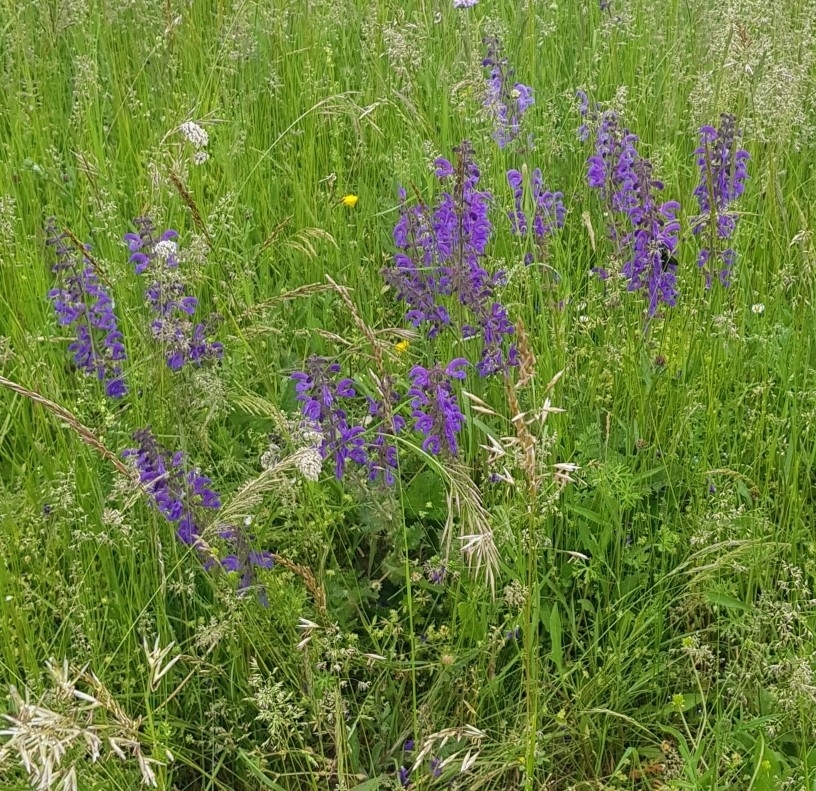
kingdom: Plantae
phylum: Tracheophyta
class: Magnoliopsida
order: Lamiales
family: Lamiaceae
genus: Salvia
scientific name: Salvia pratensis
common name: Meadow sage
